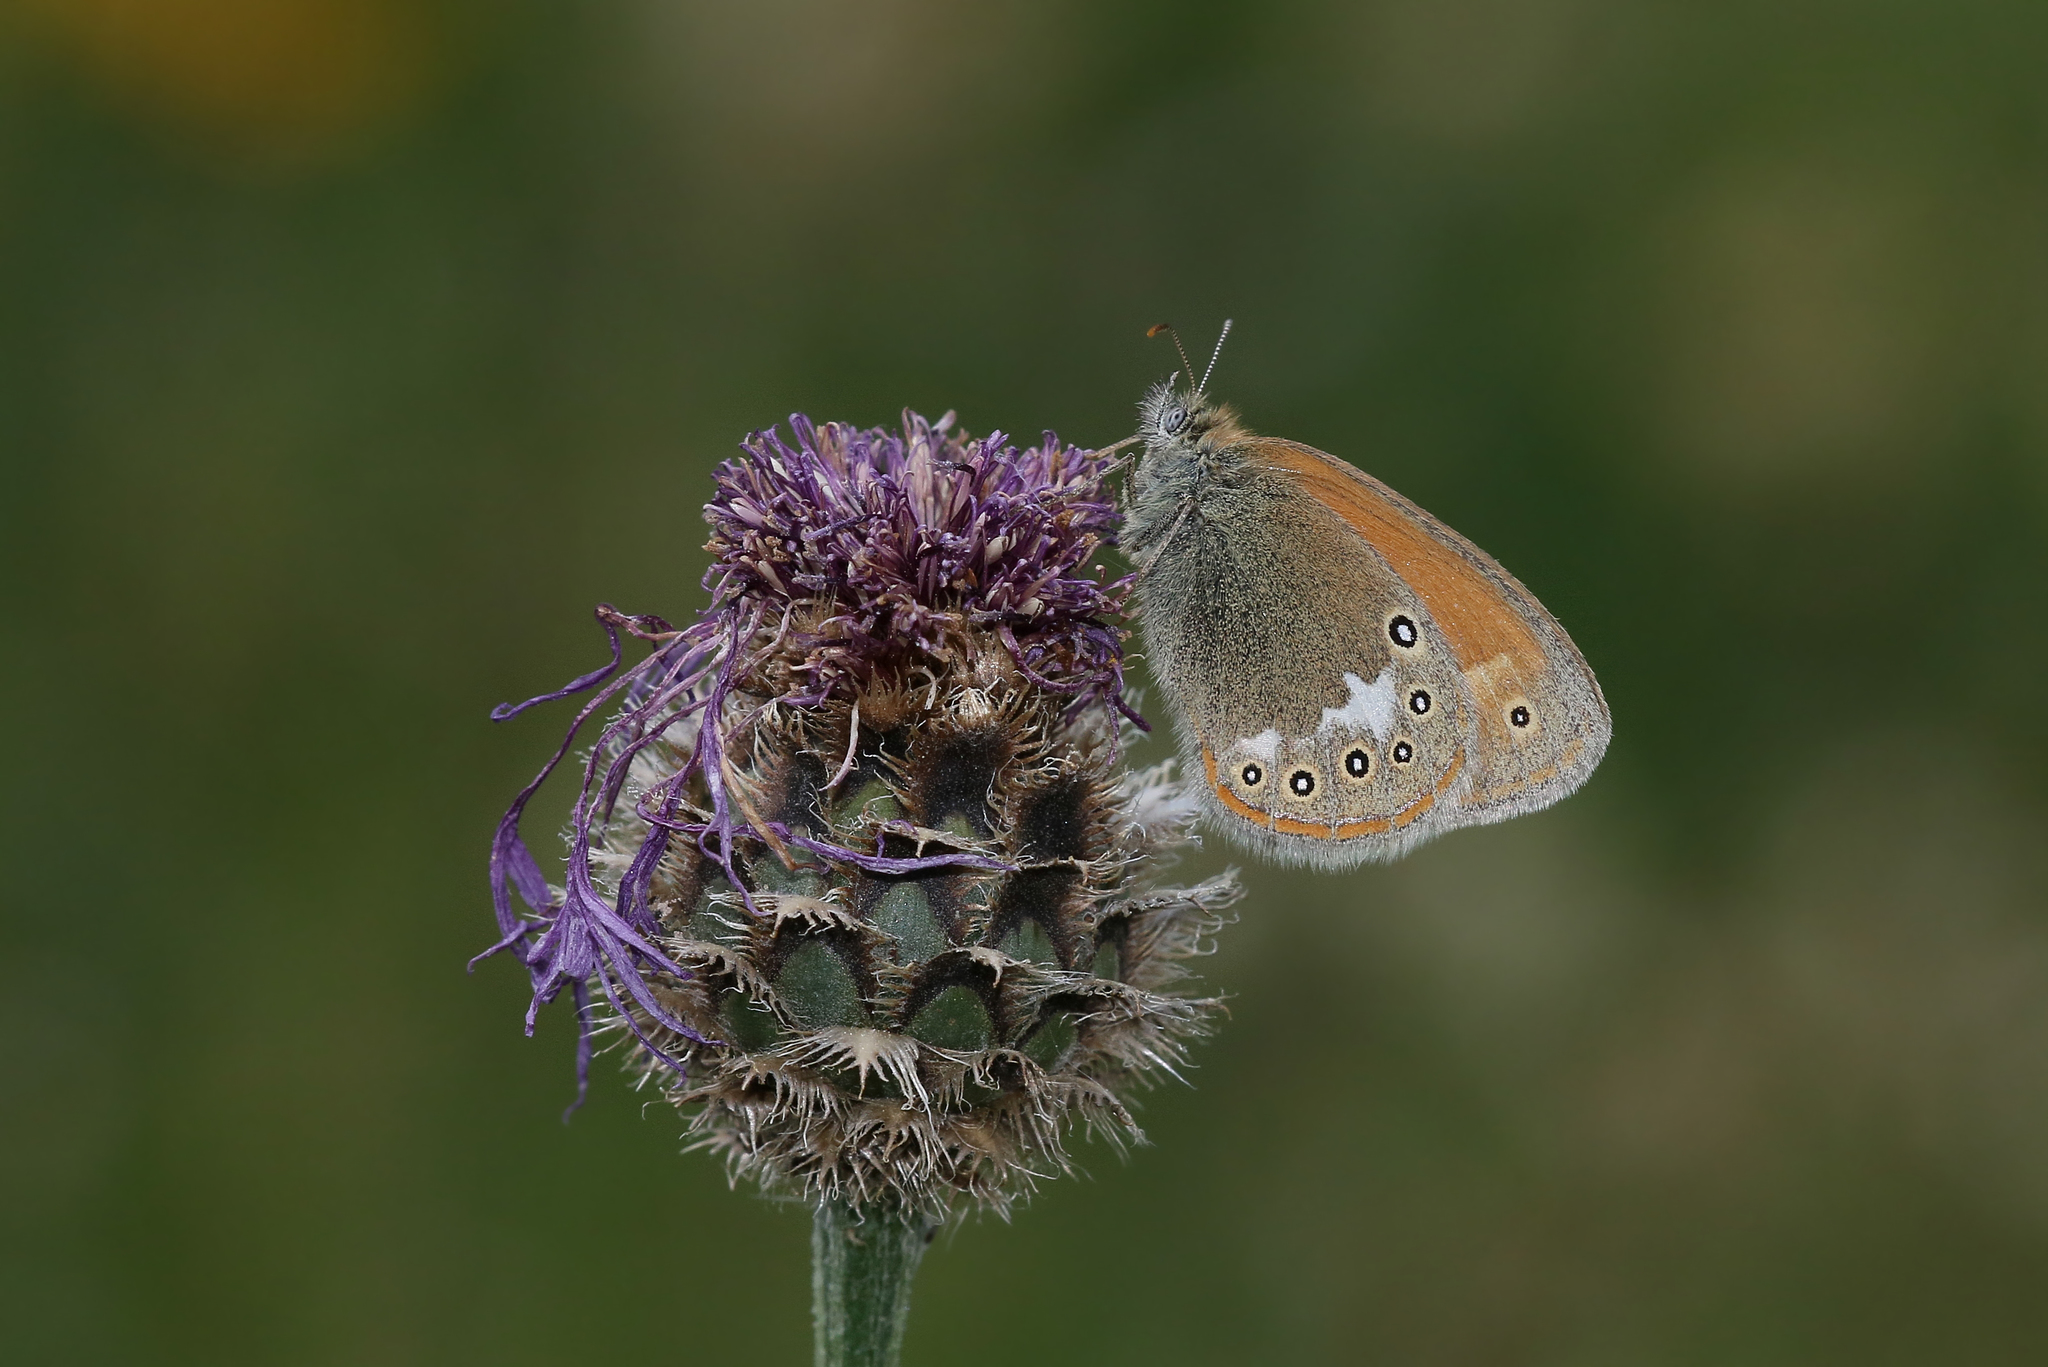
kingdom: Animalia
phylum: Arthropoda
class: Insecta
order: Lepidoptera
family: Nymphalidae
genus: Coenonympha
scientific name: Coenonympha iphis
